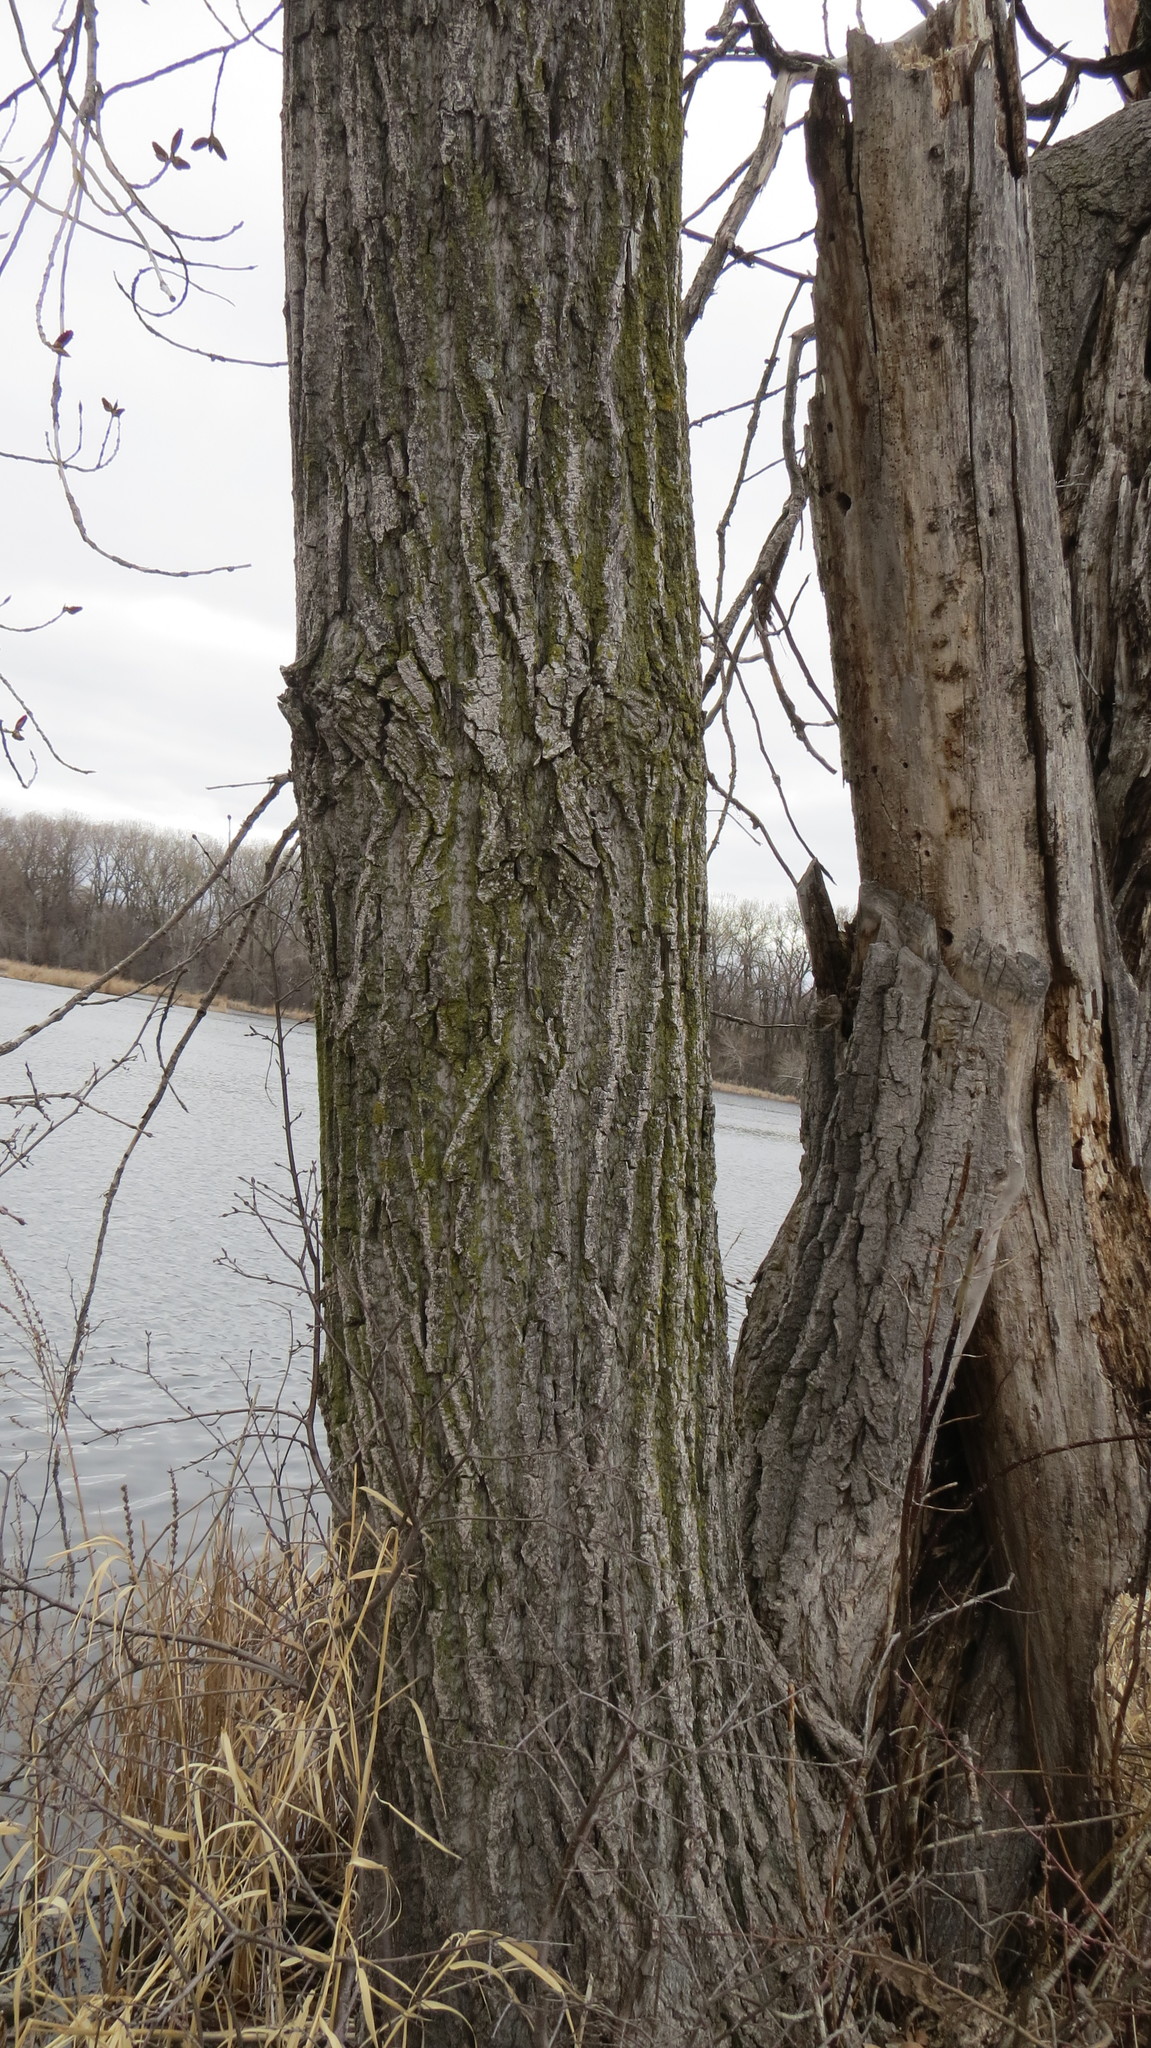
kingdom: Plantae
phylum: Tracheophyta
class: Magnoliopsida
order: Malpighiales
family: Salicaceae
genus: Populus
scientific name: Populus deltoides
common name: Eastern cottonwood
